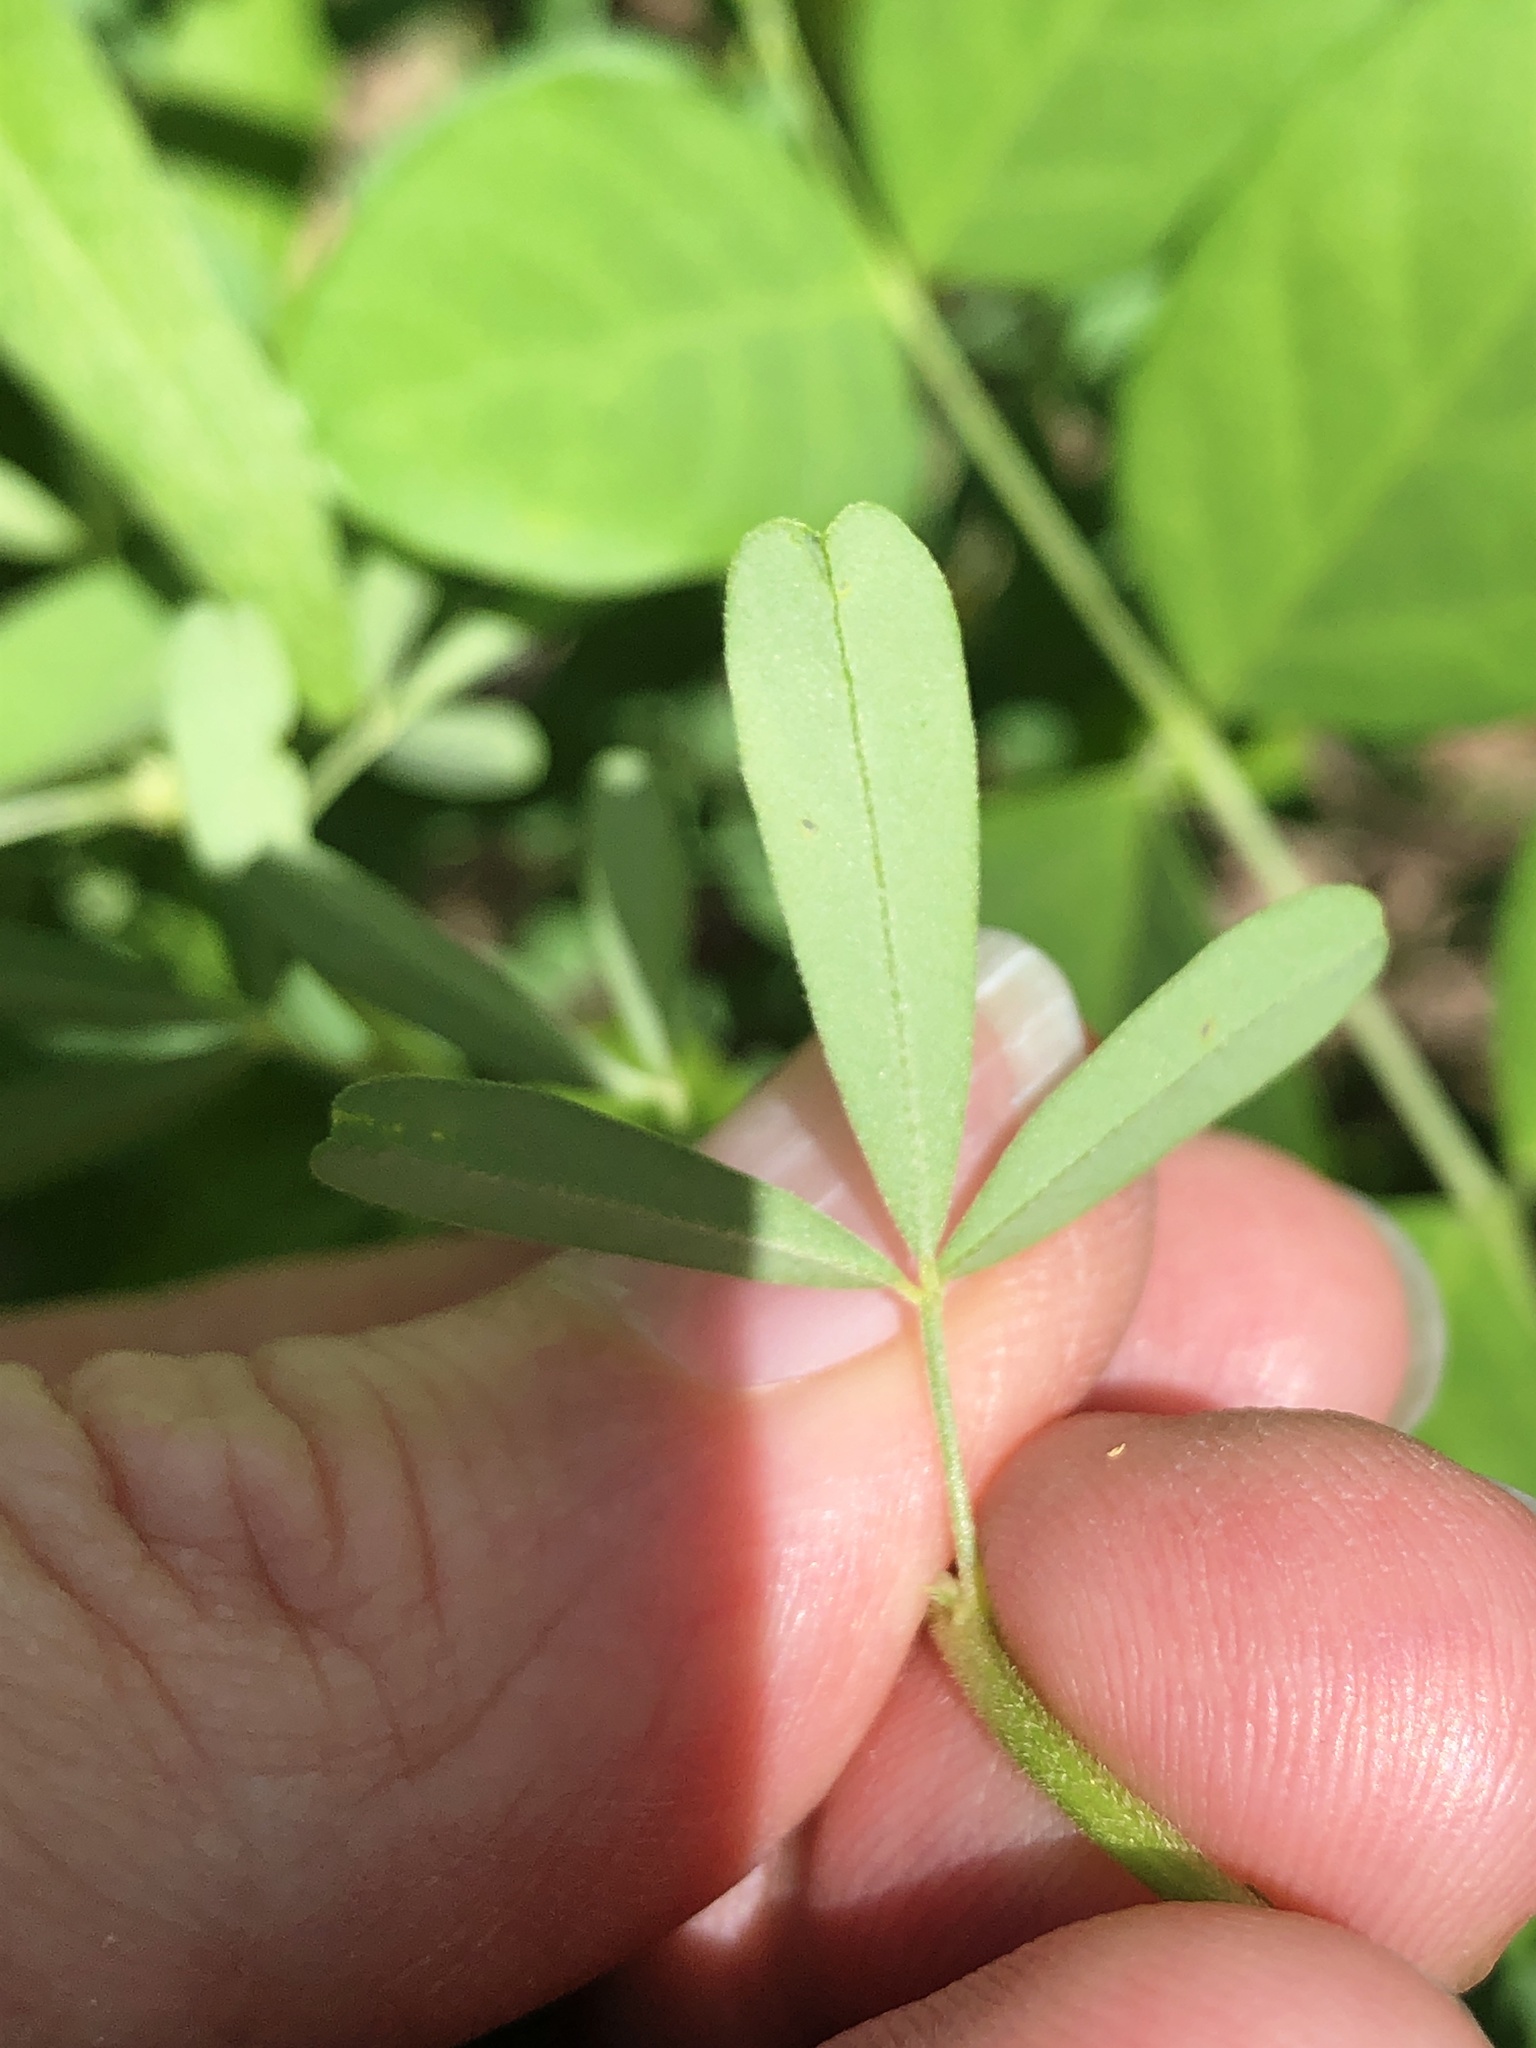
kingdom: Plantae
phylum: Tracheophyta
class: Magnoliopsida
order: Fabales
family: Fabaceae
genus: Crotalaria
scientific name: Crotalaria medicaginea
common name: Trefoil rattlepod
